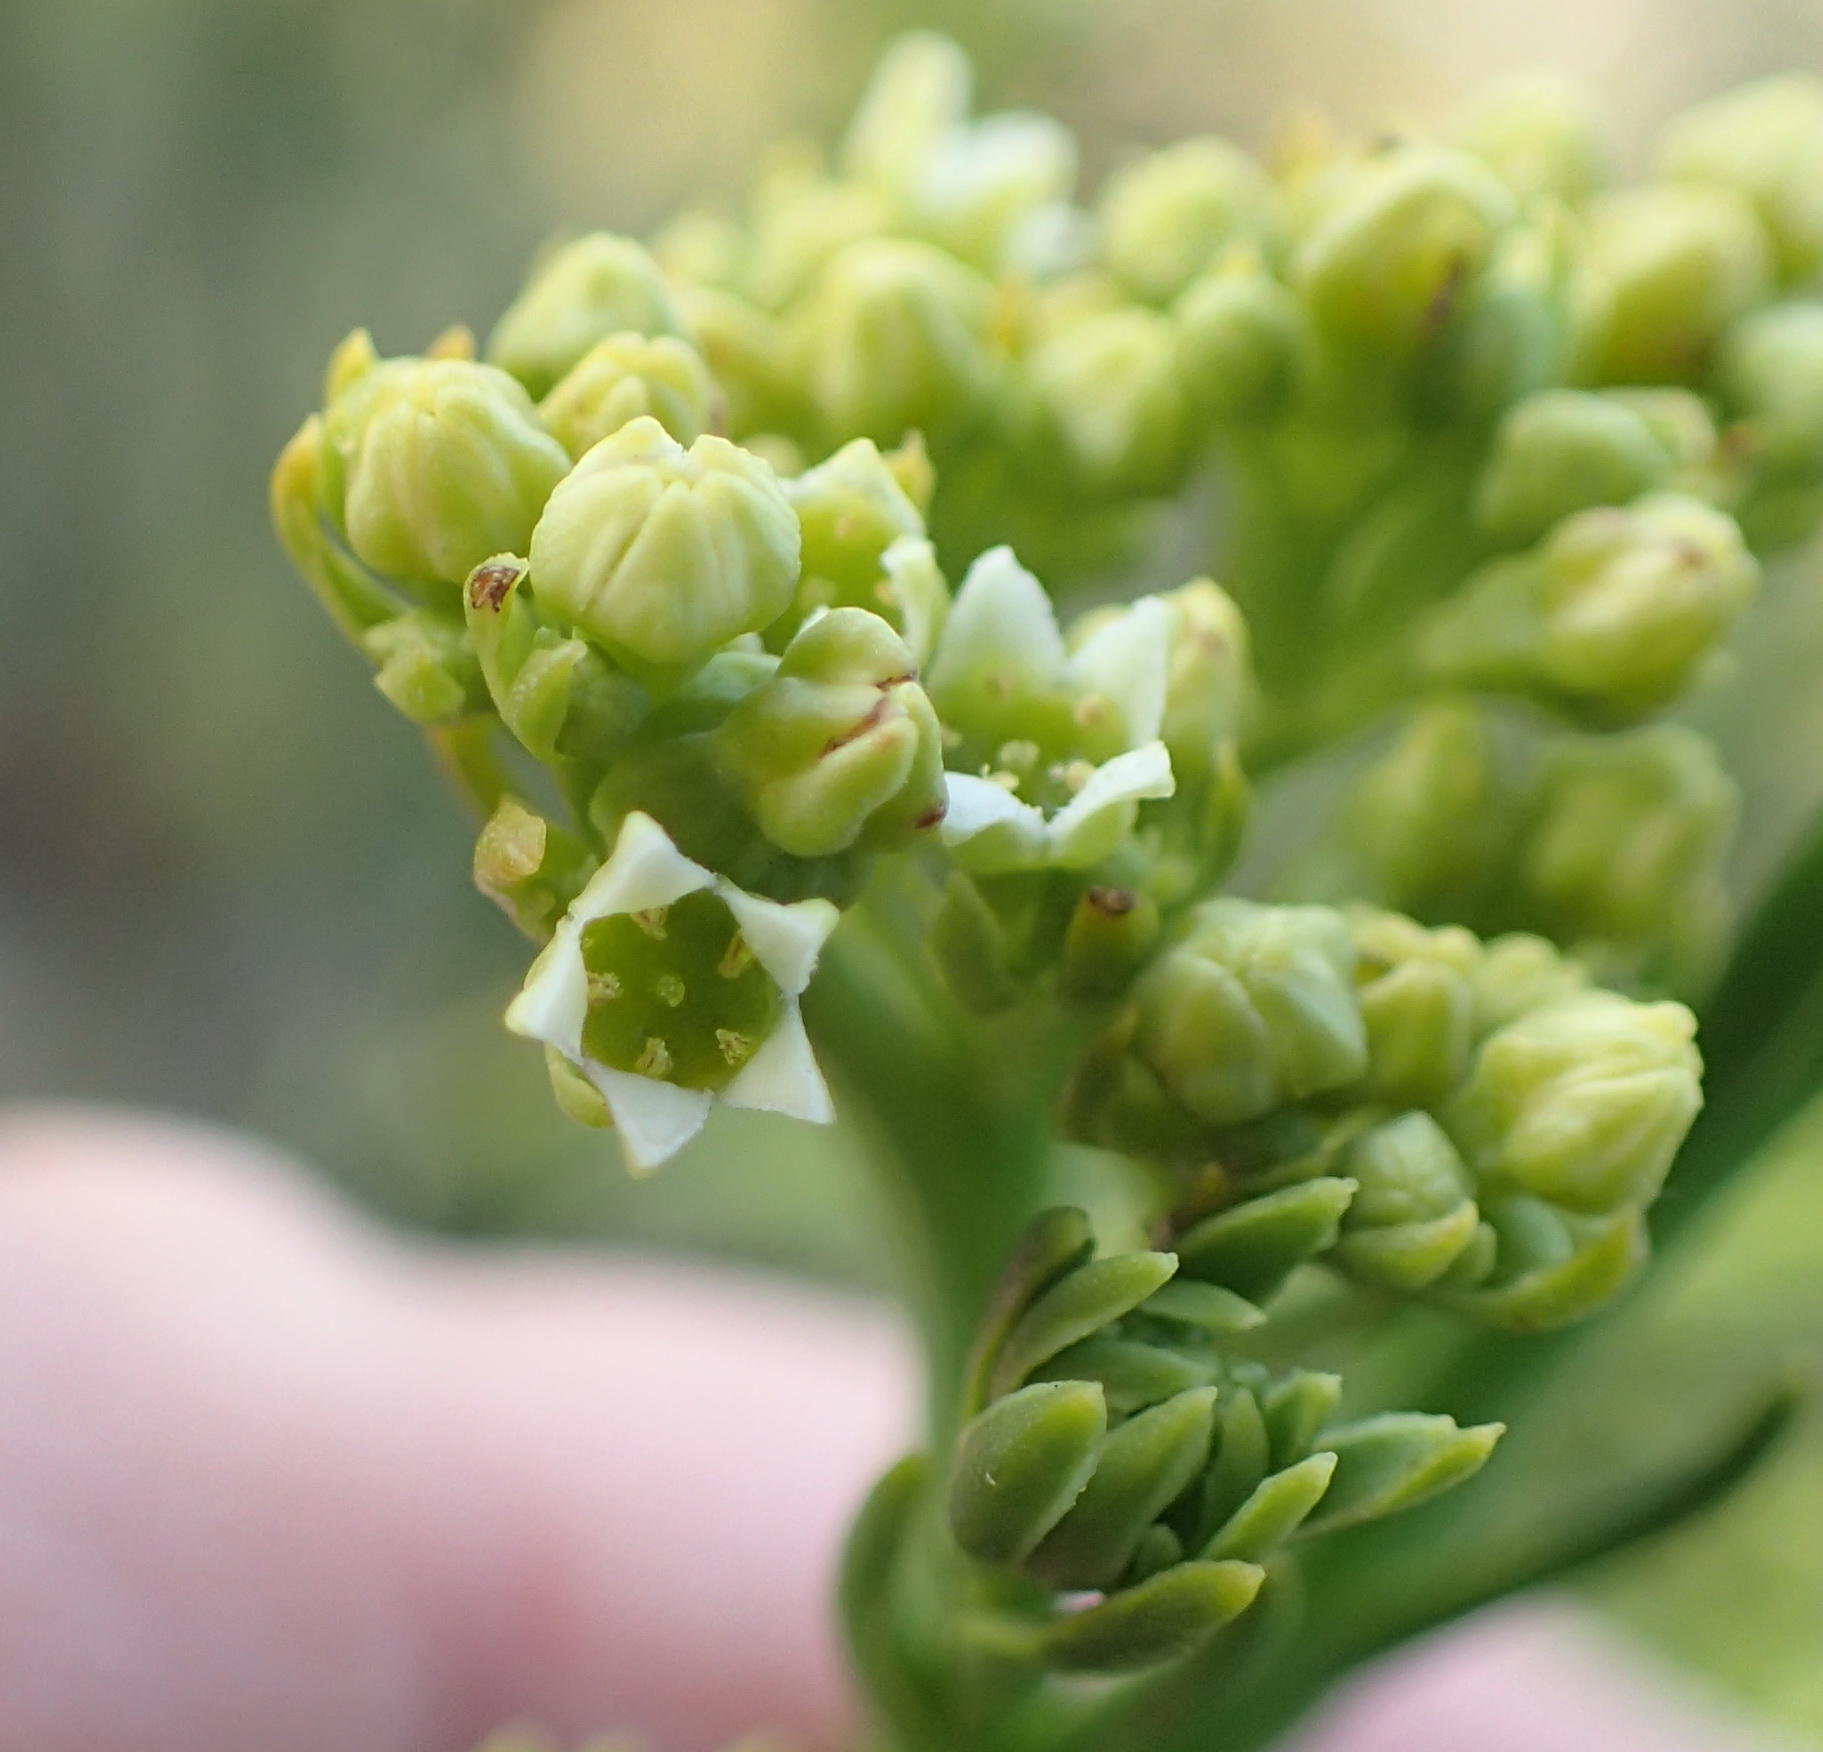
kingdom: Plantae
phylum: Tracheophyta
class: Magnoliopsida
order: Santalales
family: Thesiaceae
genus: Thesium
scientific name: Thesium strictum
